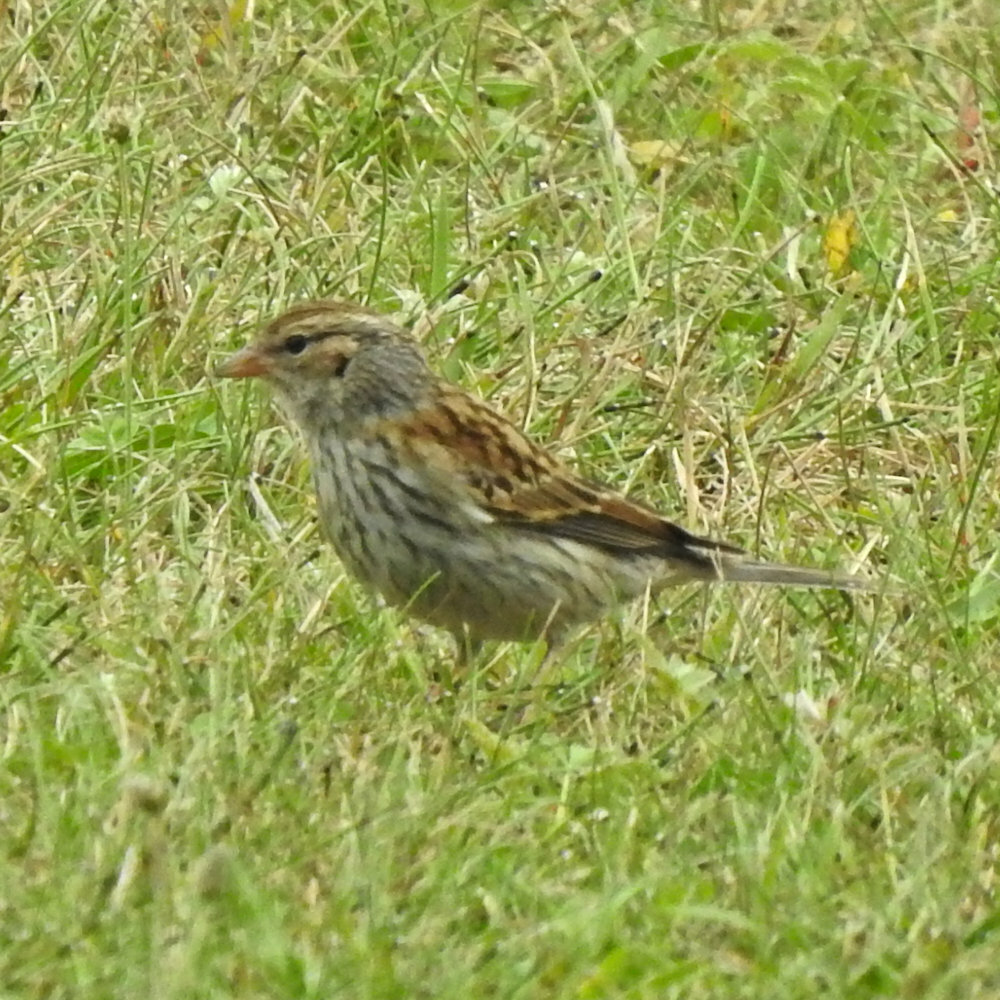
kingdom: Animalia
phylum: Chordata
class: Aves
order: Passeriformes
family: Passerellidae
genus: Spizella
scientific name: Spizella passerina
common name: Chipping sparrow
